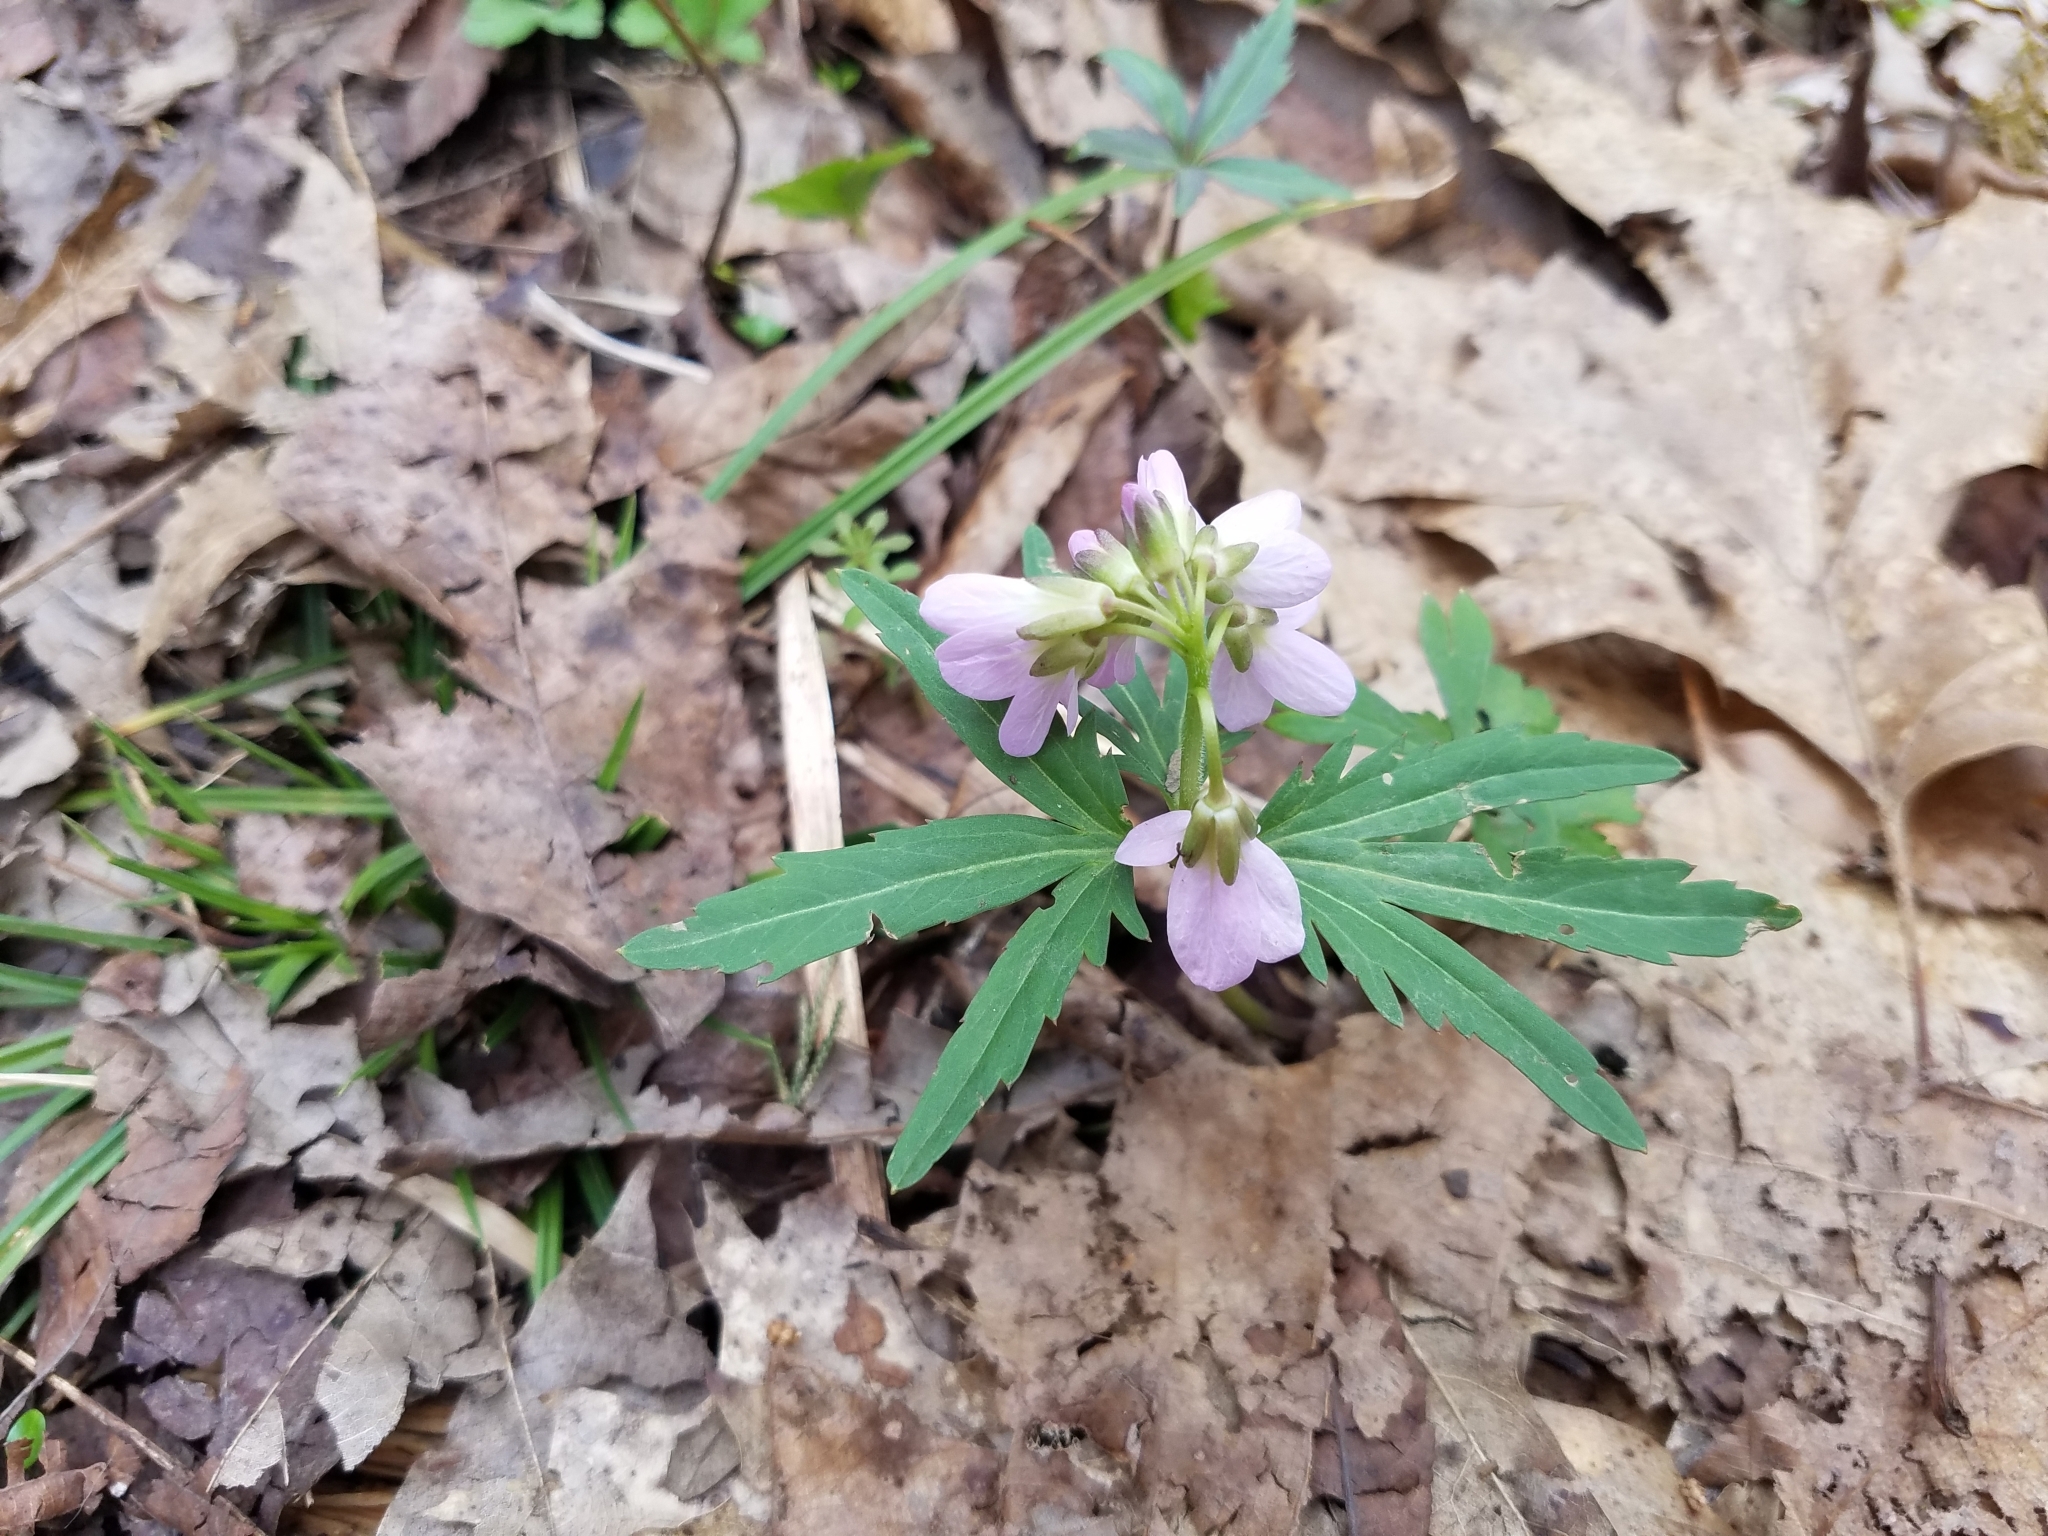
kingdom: Plantae
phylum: Tracheophyta
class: Magnoliopsida
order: Brassicales
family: Brassicaceae
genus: Cardamine
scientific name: Cardamine concatenata
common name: Cut-leaf toothcup
